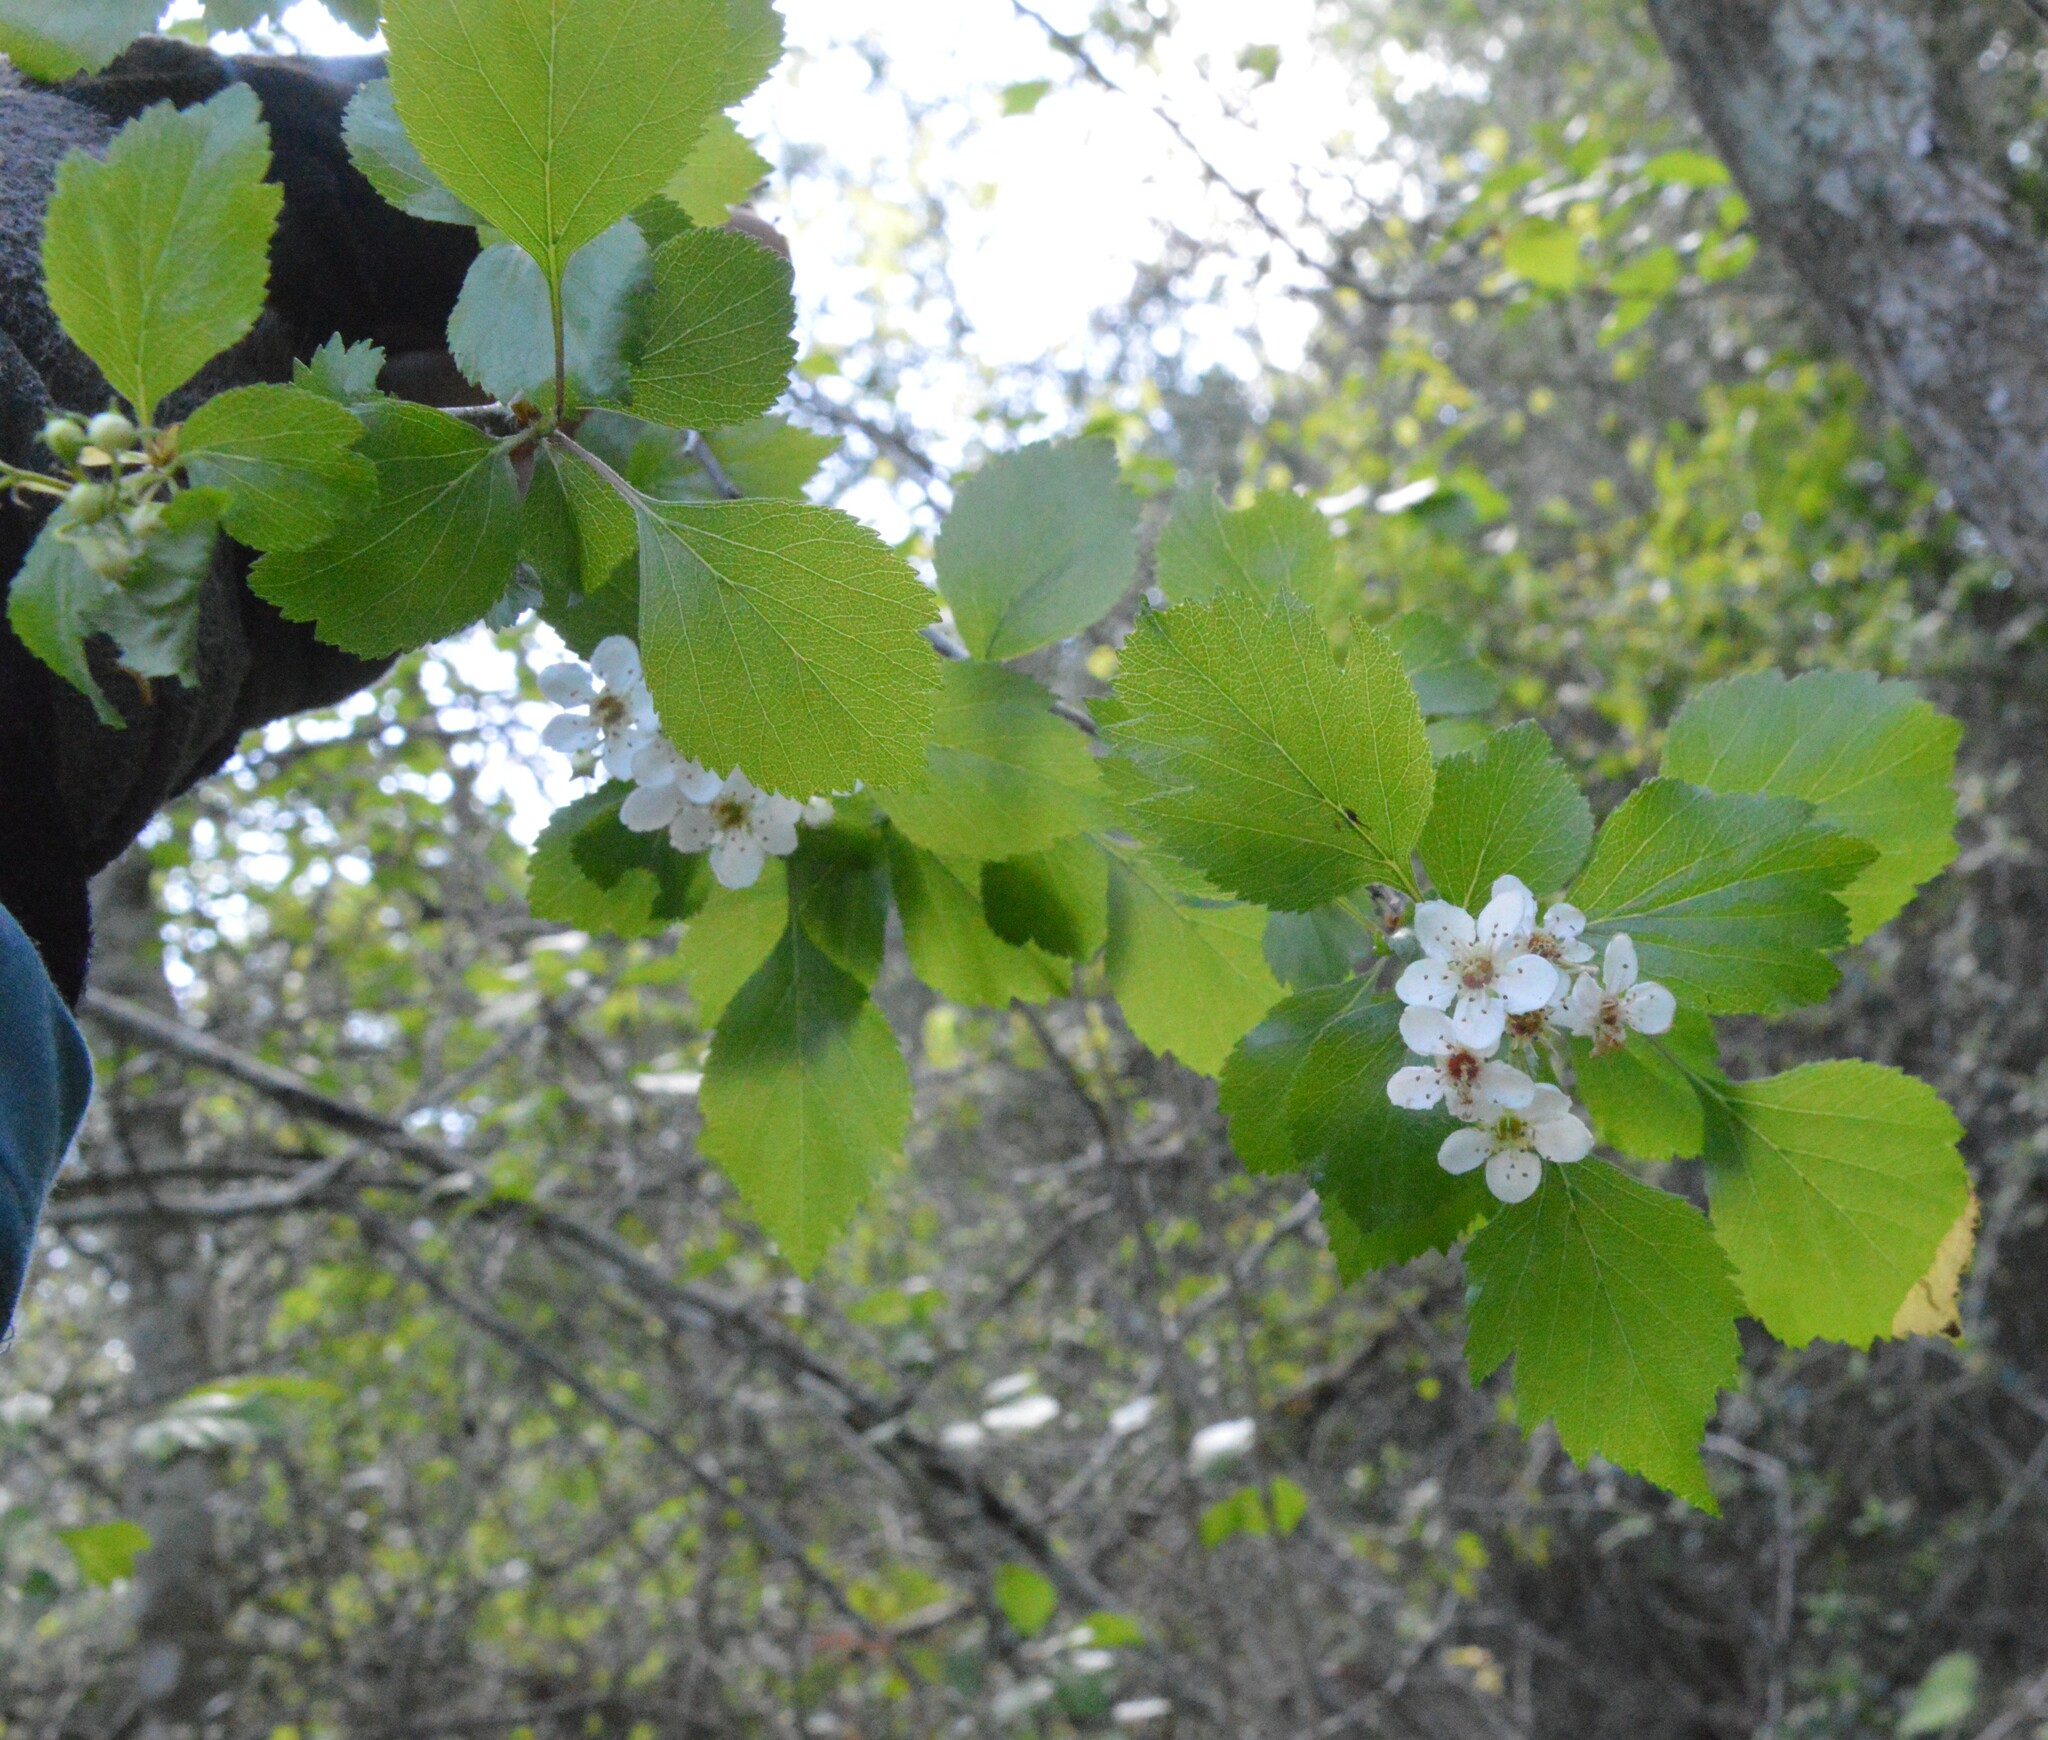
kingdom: Plantae
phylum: Tracheophyta
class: Magnoliopsida
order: Rosales
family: Rosaceae
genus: Crataegus
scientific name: Crataegus viridis
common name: Southernthorn
